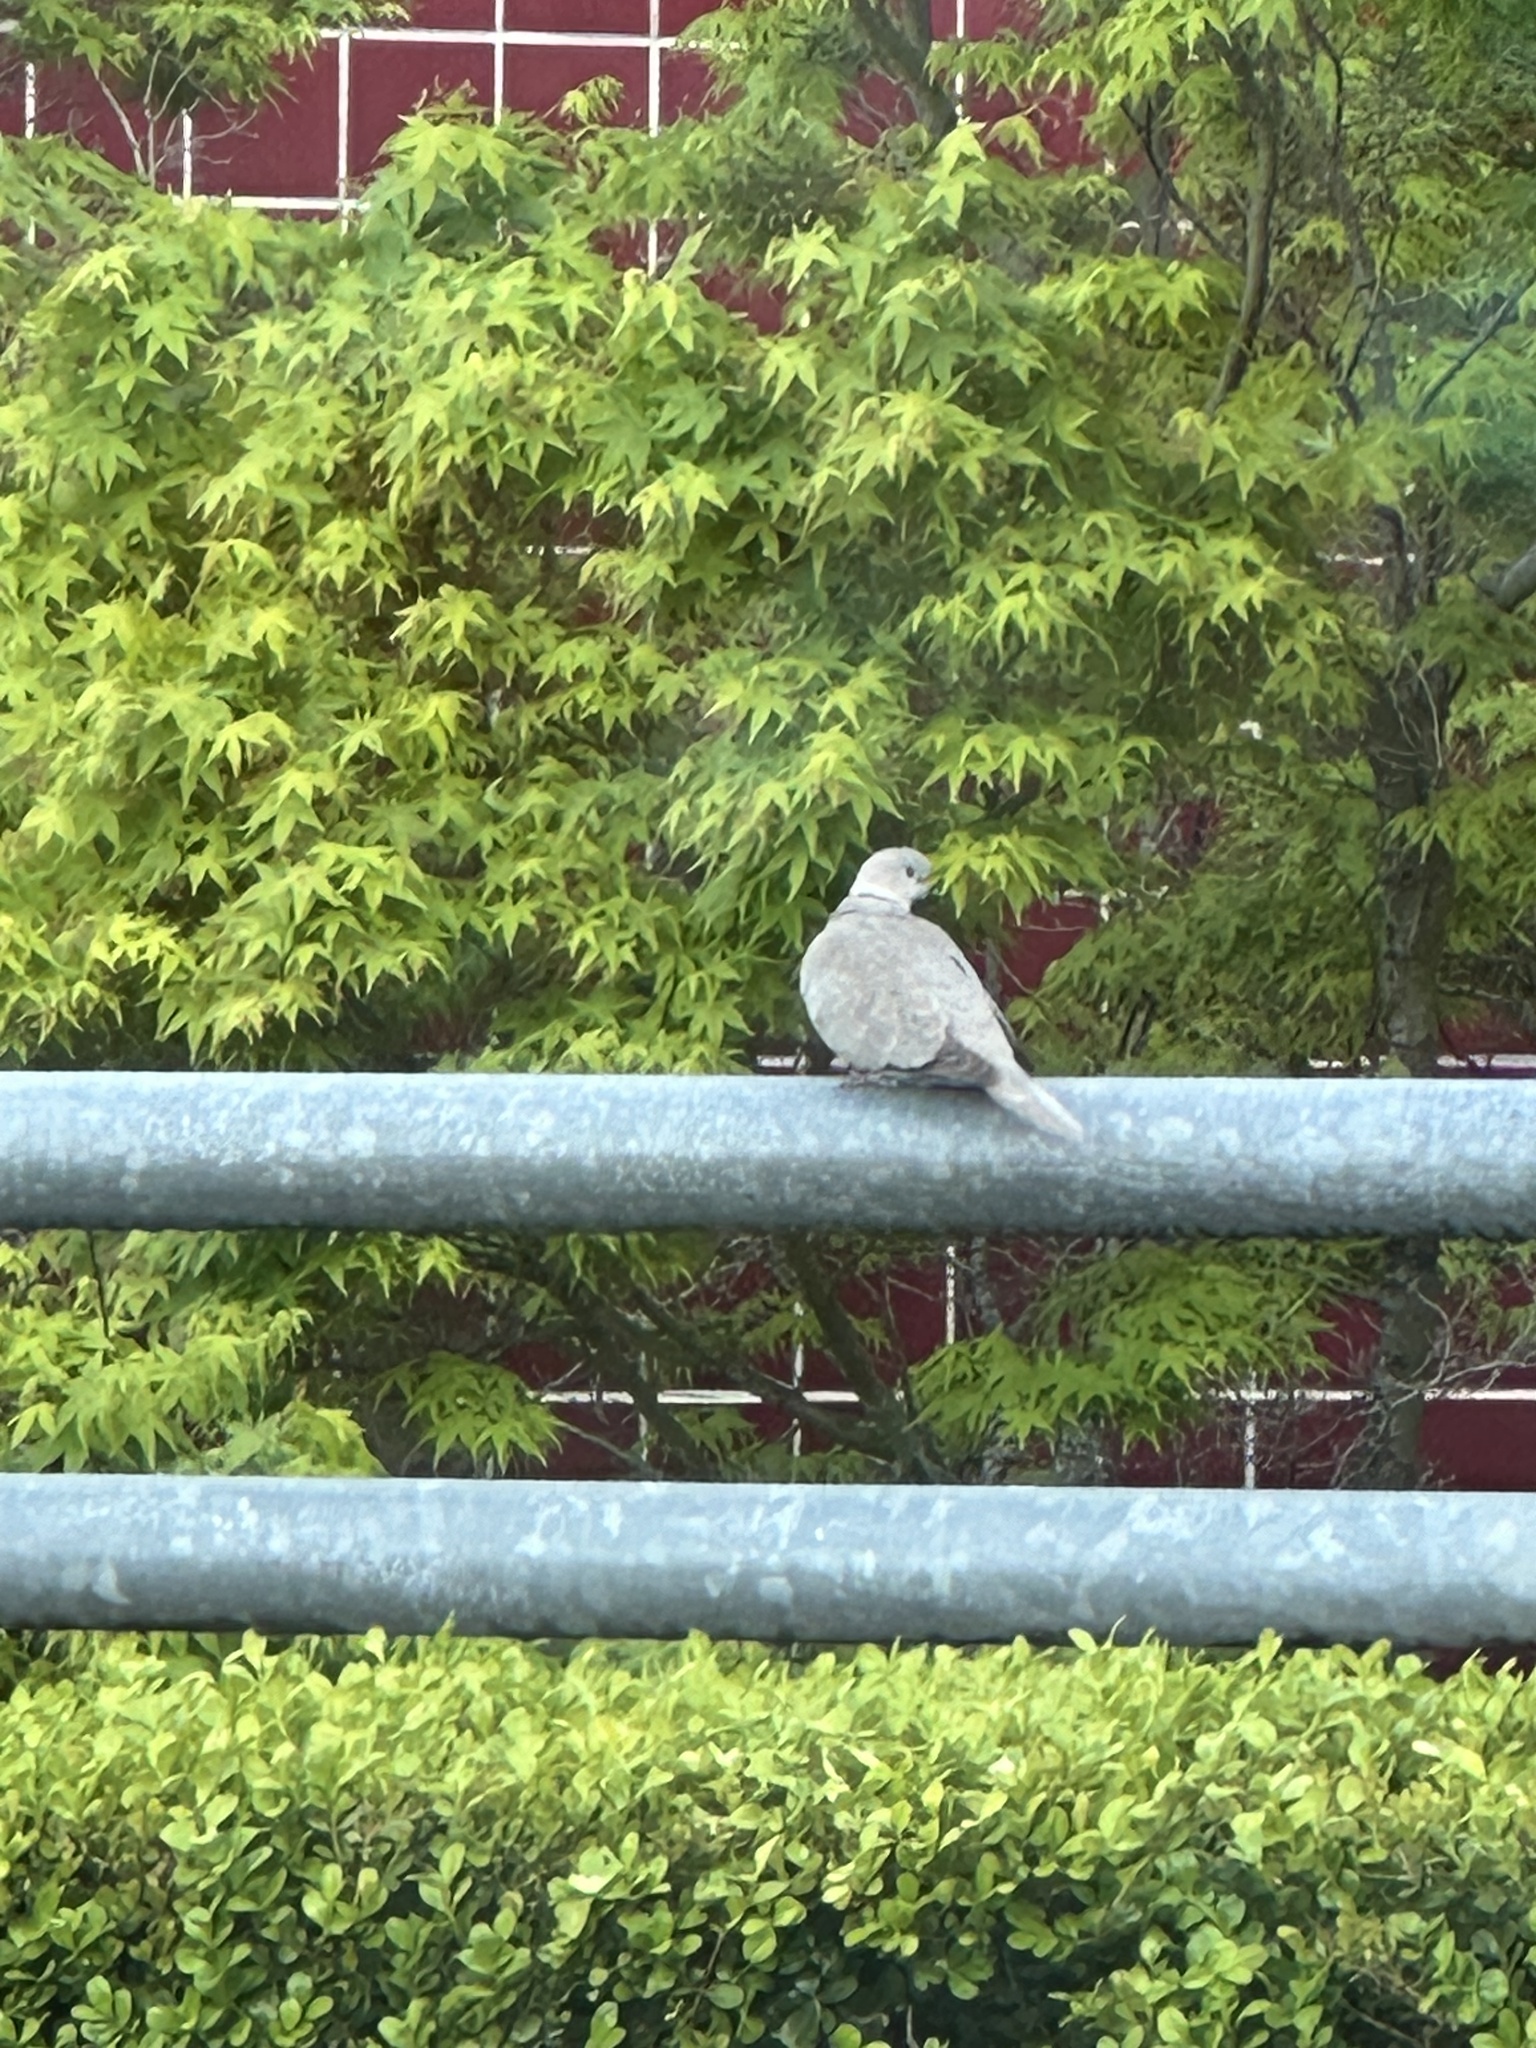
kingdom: Animalia
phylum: Chordata
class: Aves
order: Columbiformes
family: Columbidae
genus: Streptopelia
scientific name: Streptopelia decaocto
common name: Eurasian collared dove
